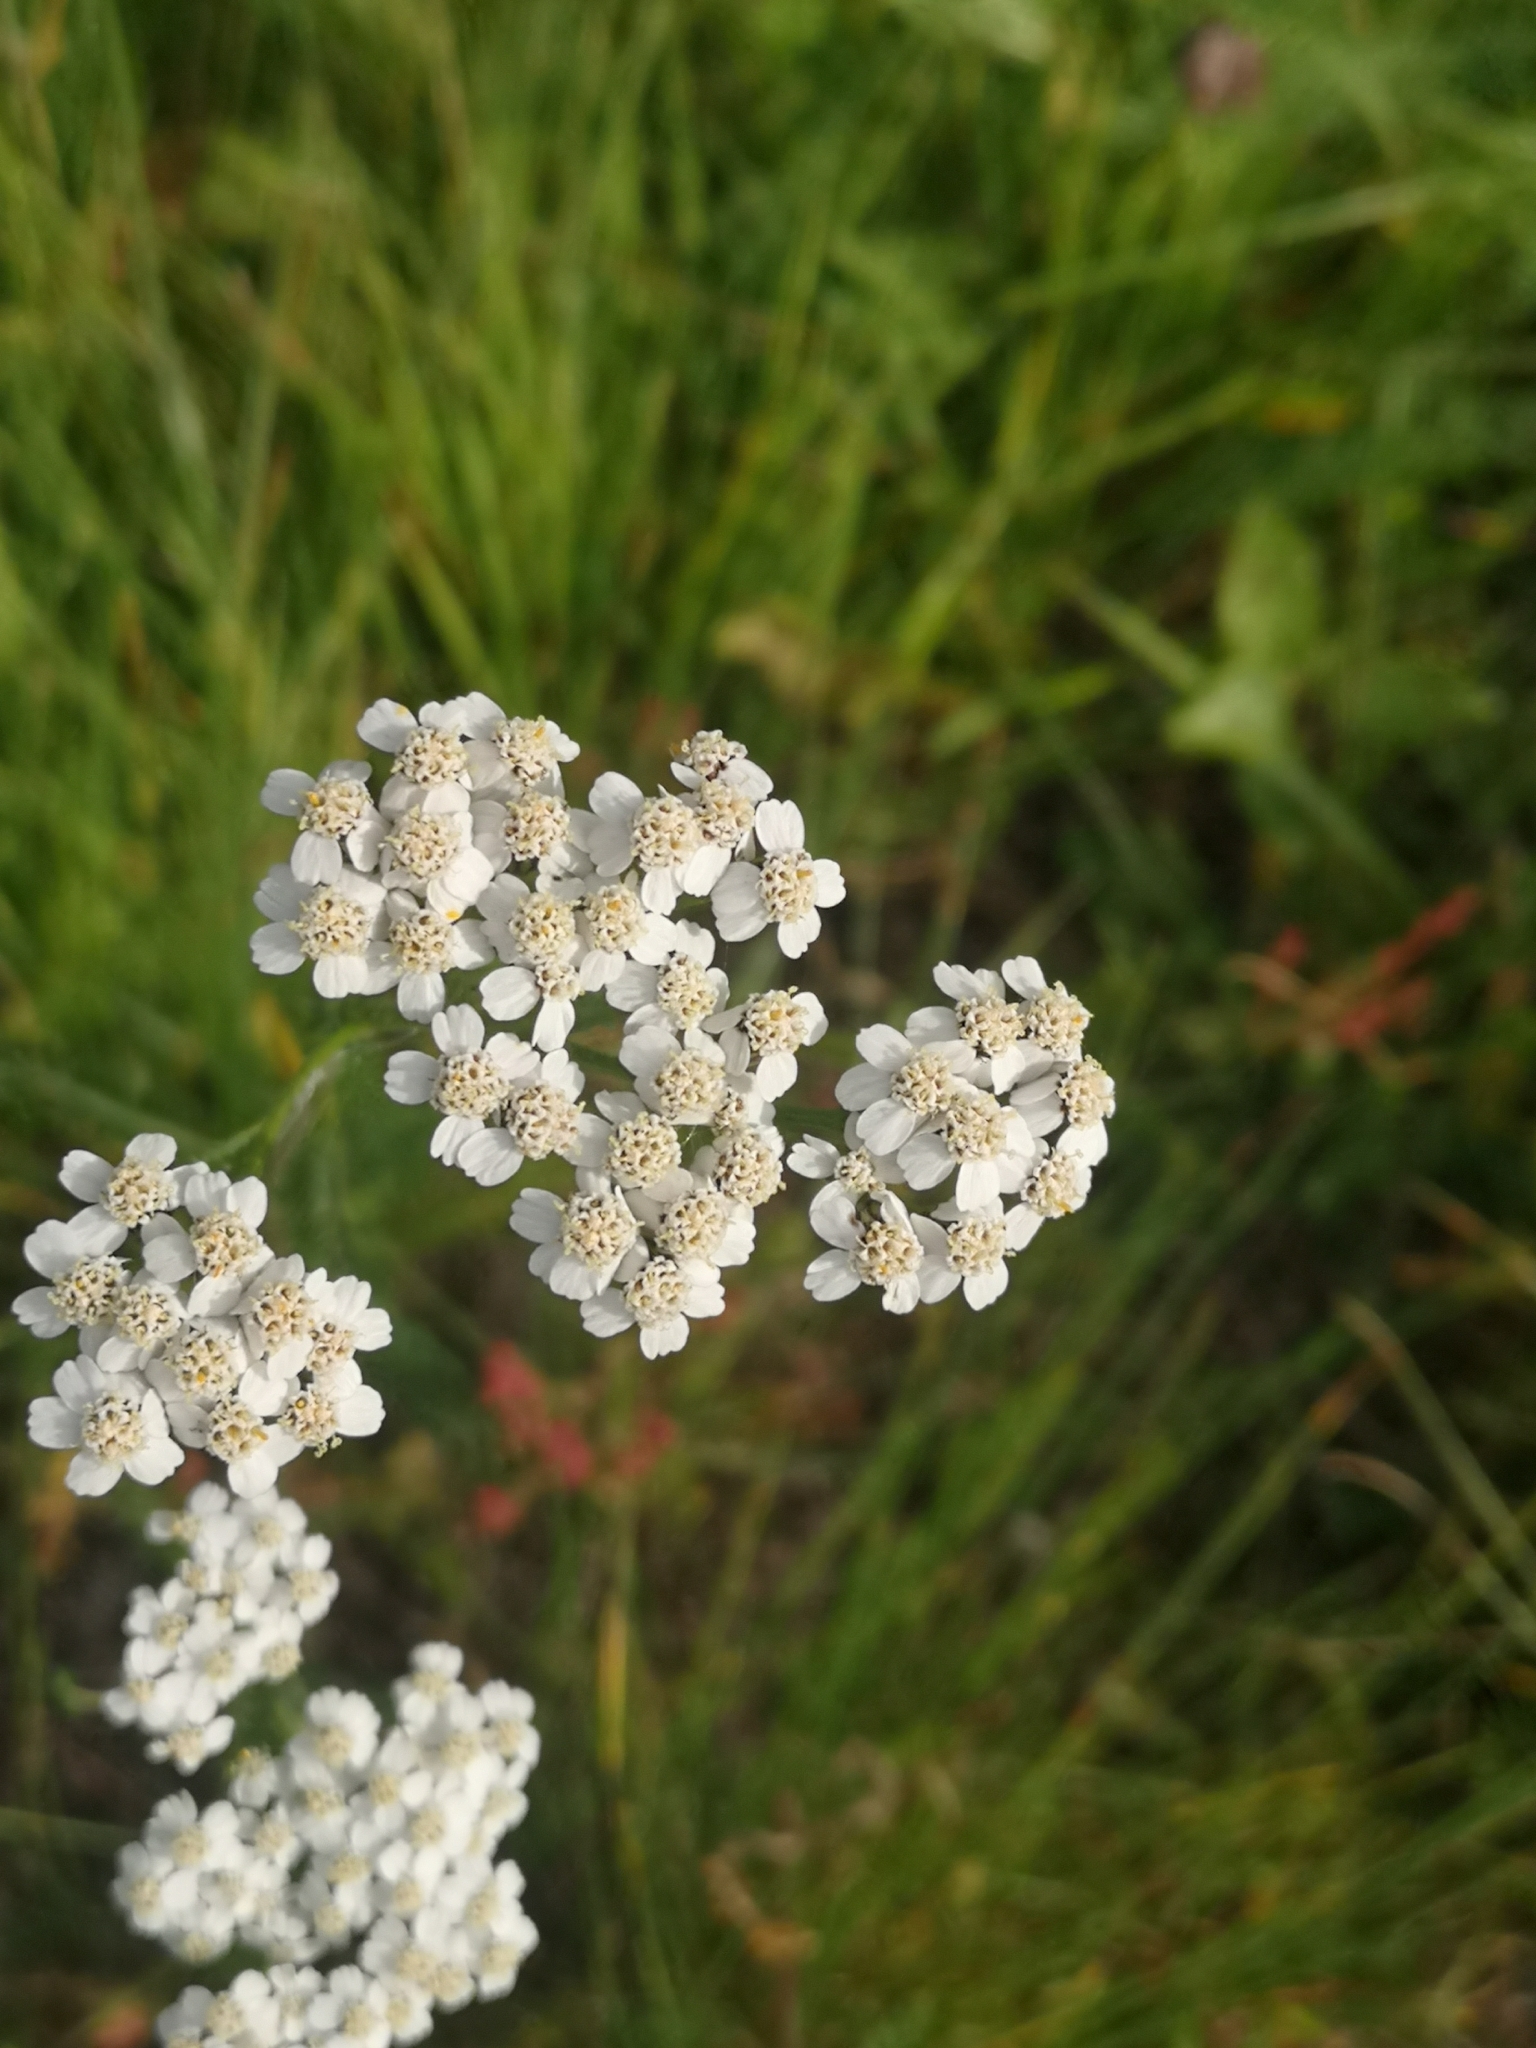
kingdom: Plantae
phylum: Tracheophyta
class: Magnoliopsida
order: Asterales
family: Asteraceae
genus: Achillea
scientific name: Achillea millefolium
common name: Yarrow
